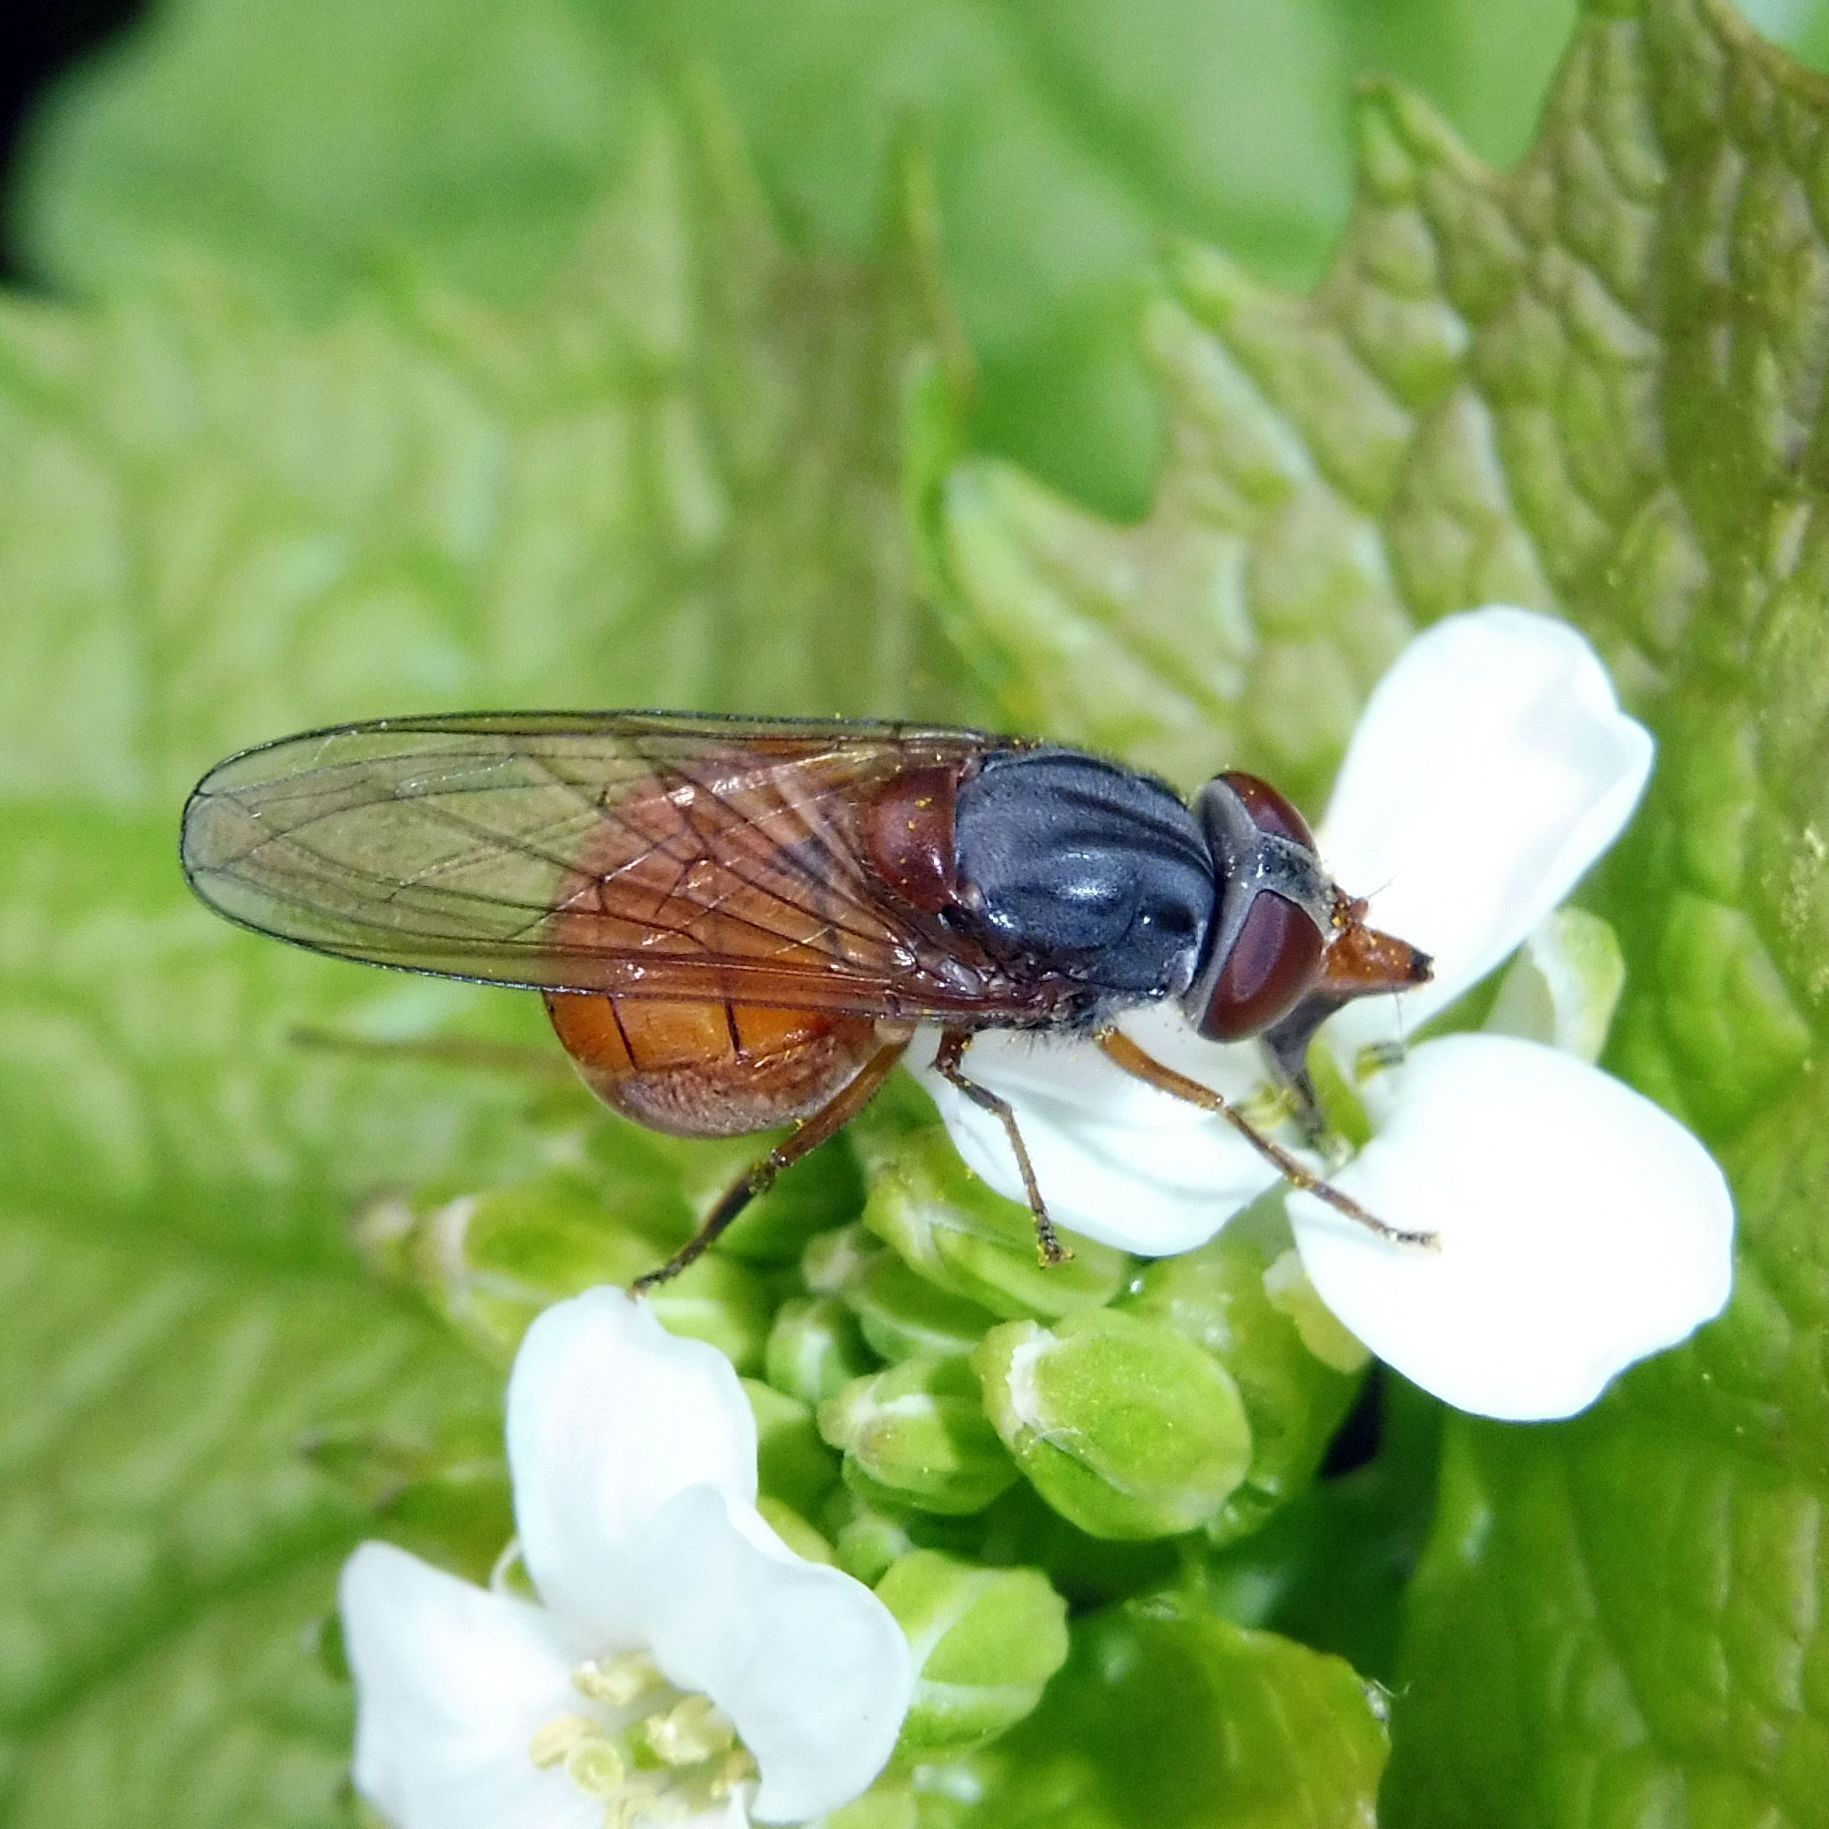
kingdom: Animalia
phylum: Arthropoda
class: Insecta
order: Diptera
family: Syrphidae
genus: Rhingia
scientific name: Rhingia rostrata
